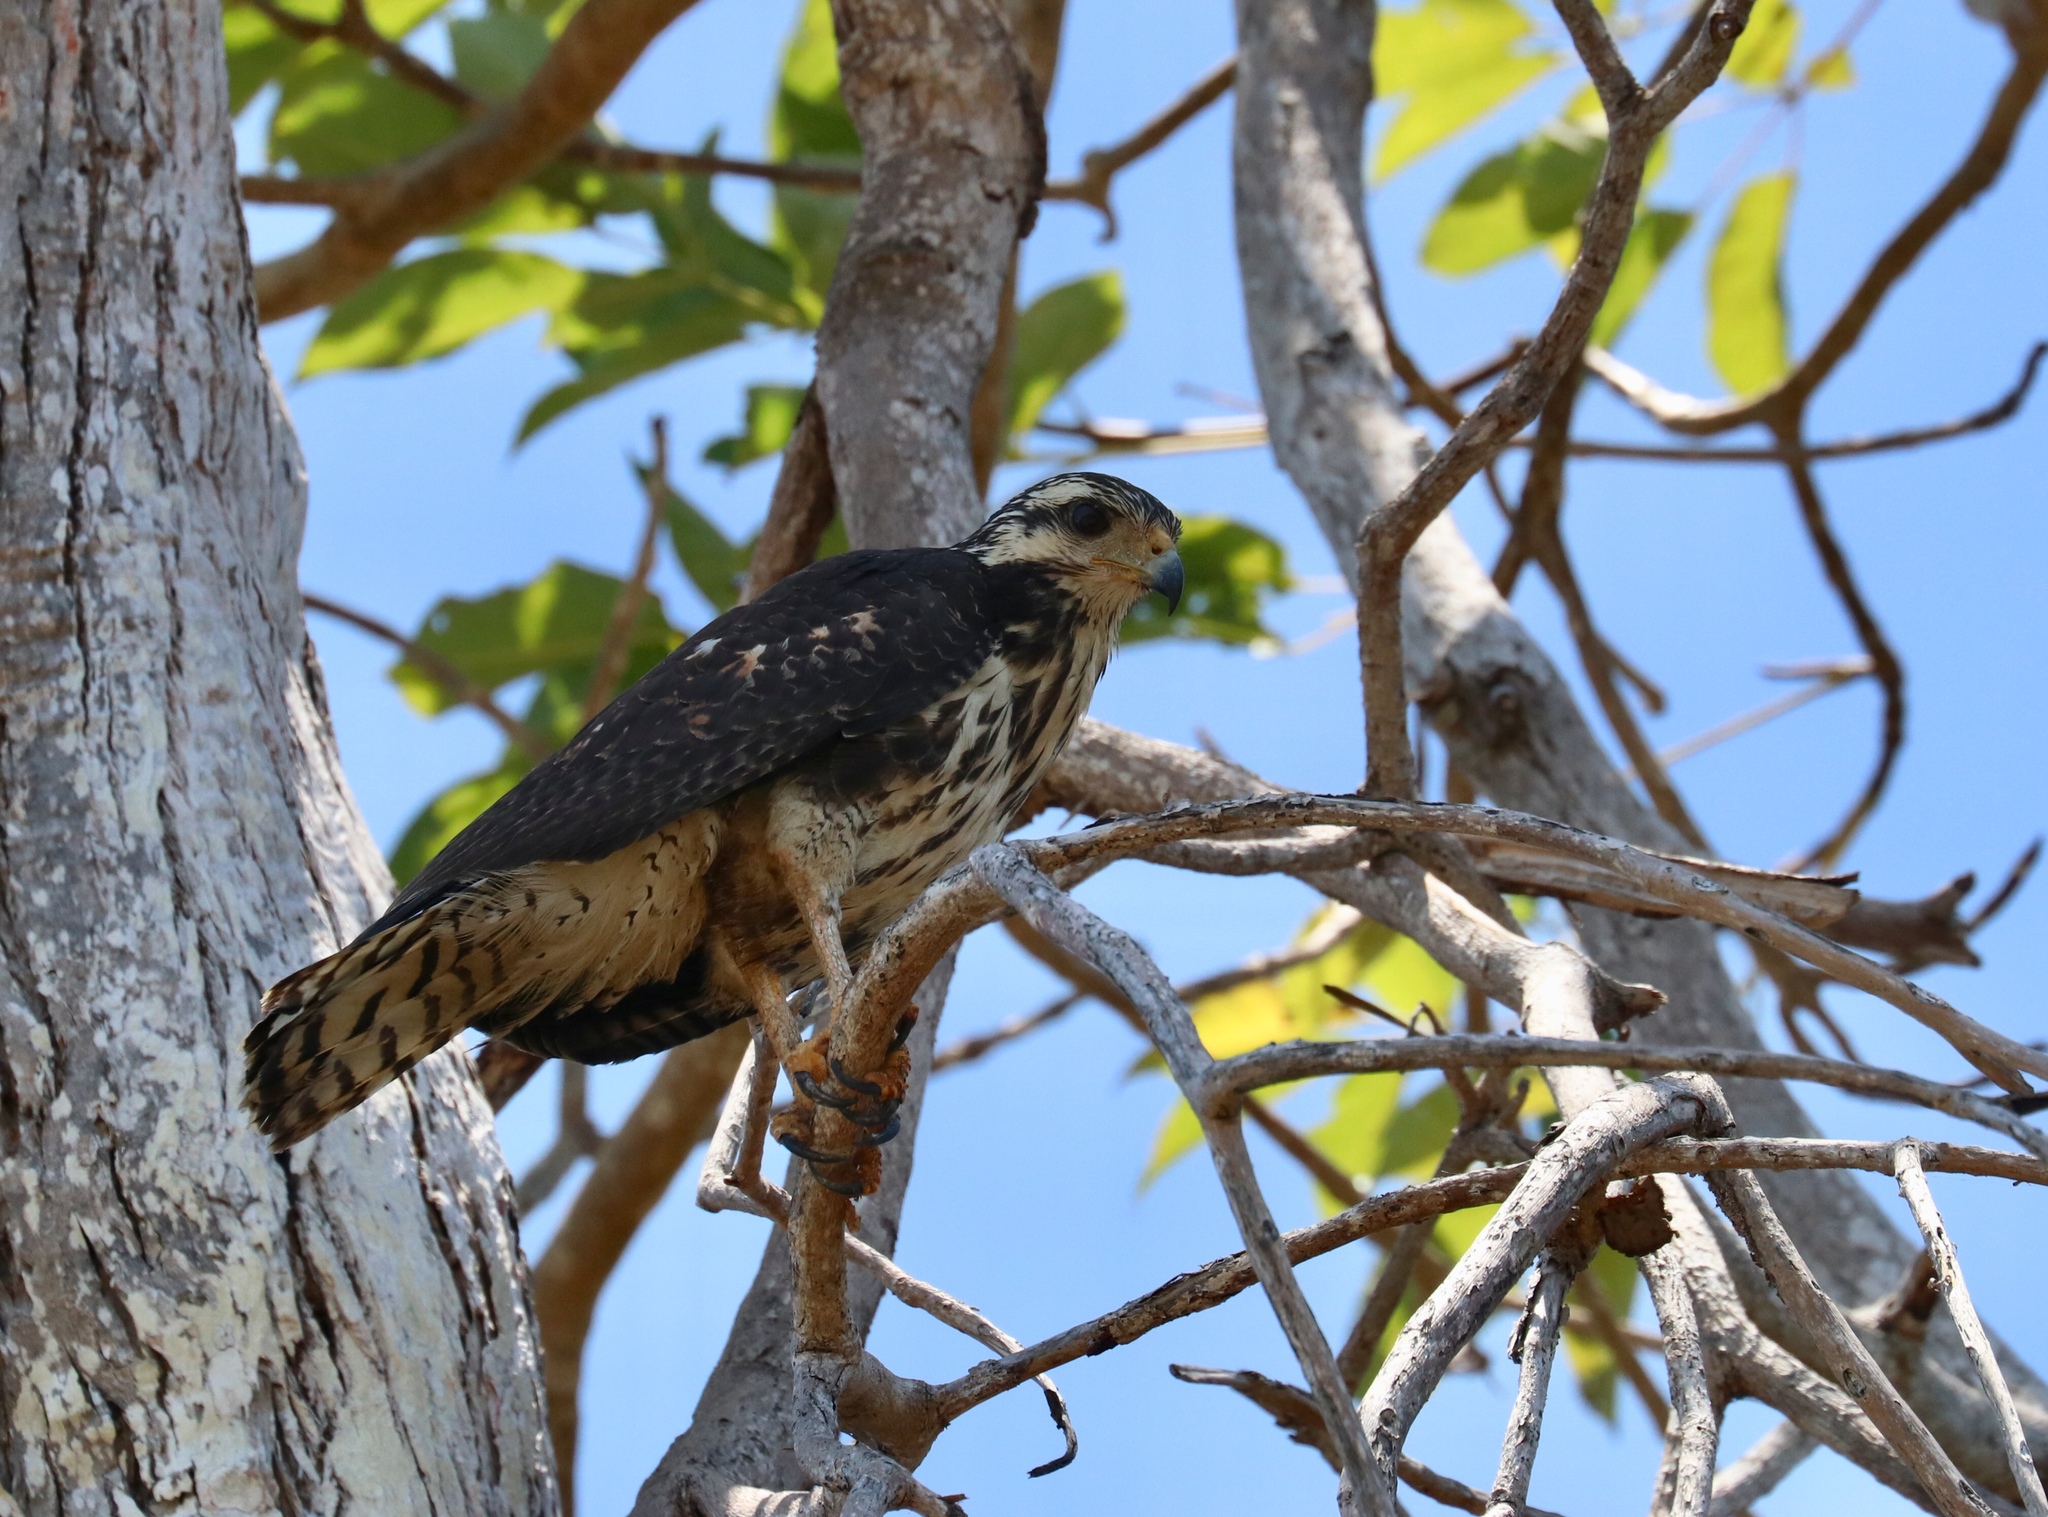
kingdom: Animalia
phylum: Chordata
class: Aves
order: Accipitriformes
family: Accipitridae
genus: Buteogallus
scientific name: Buteogallus anthracinus
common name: Common black hawk
